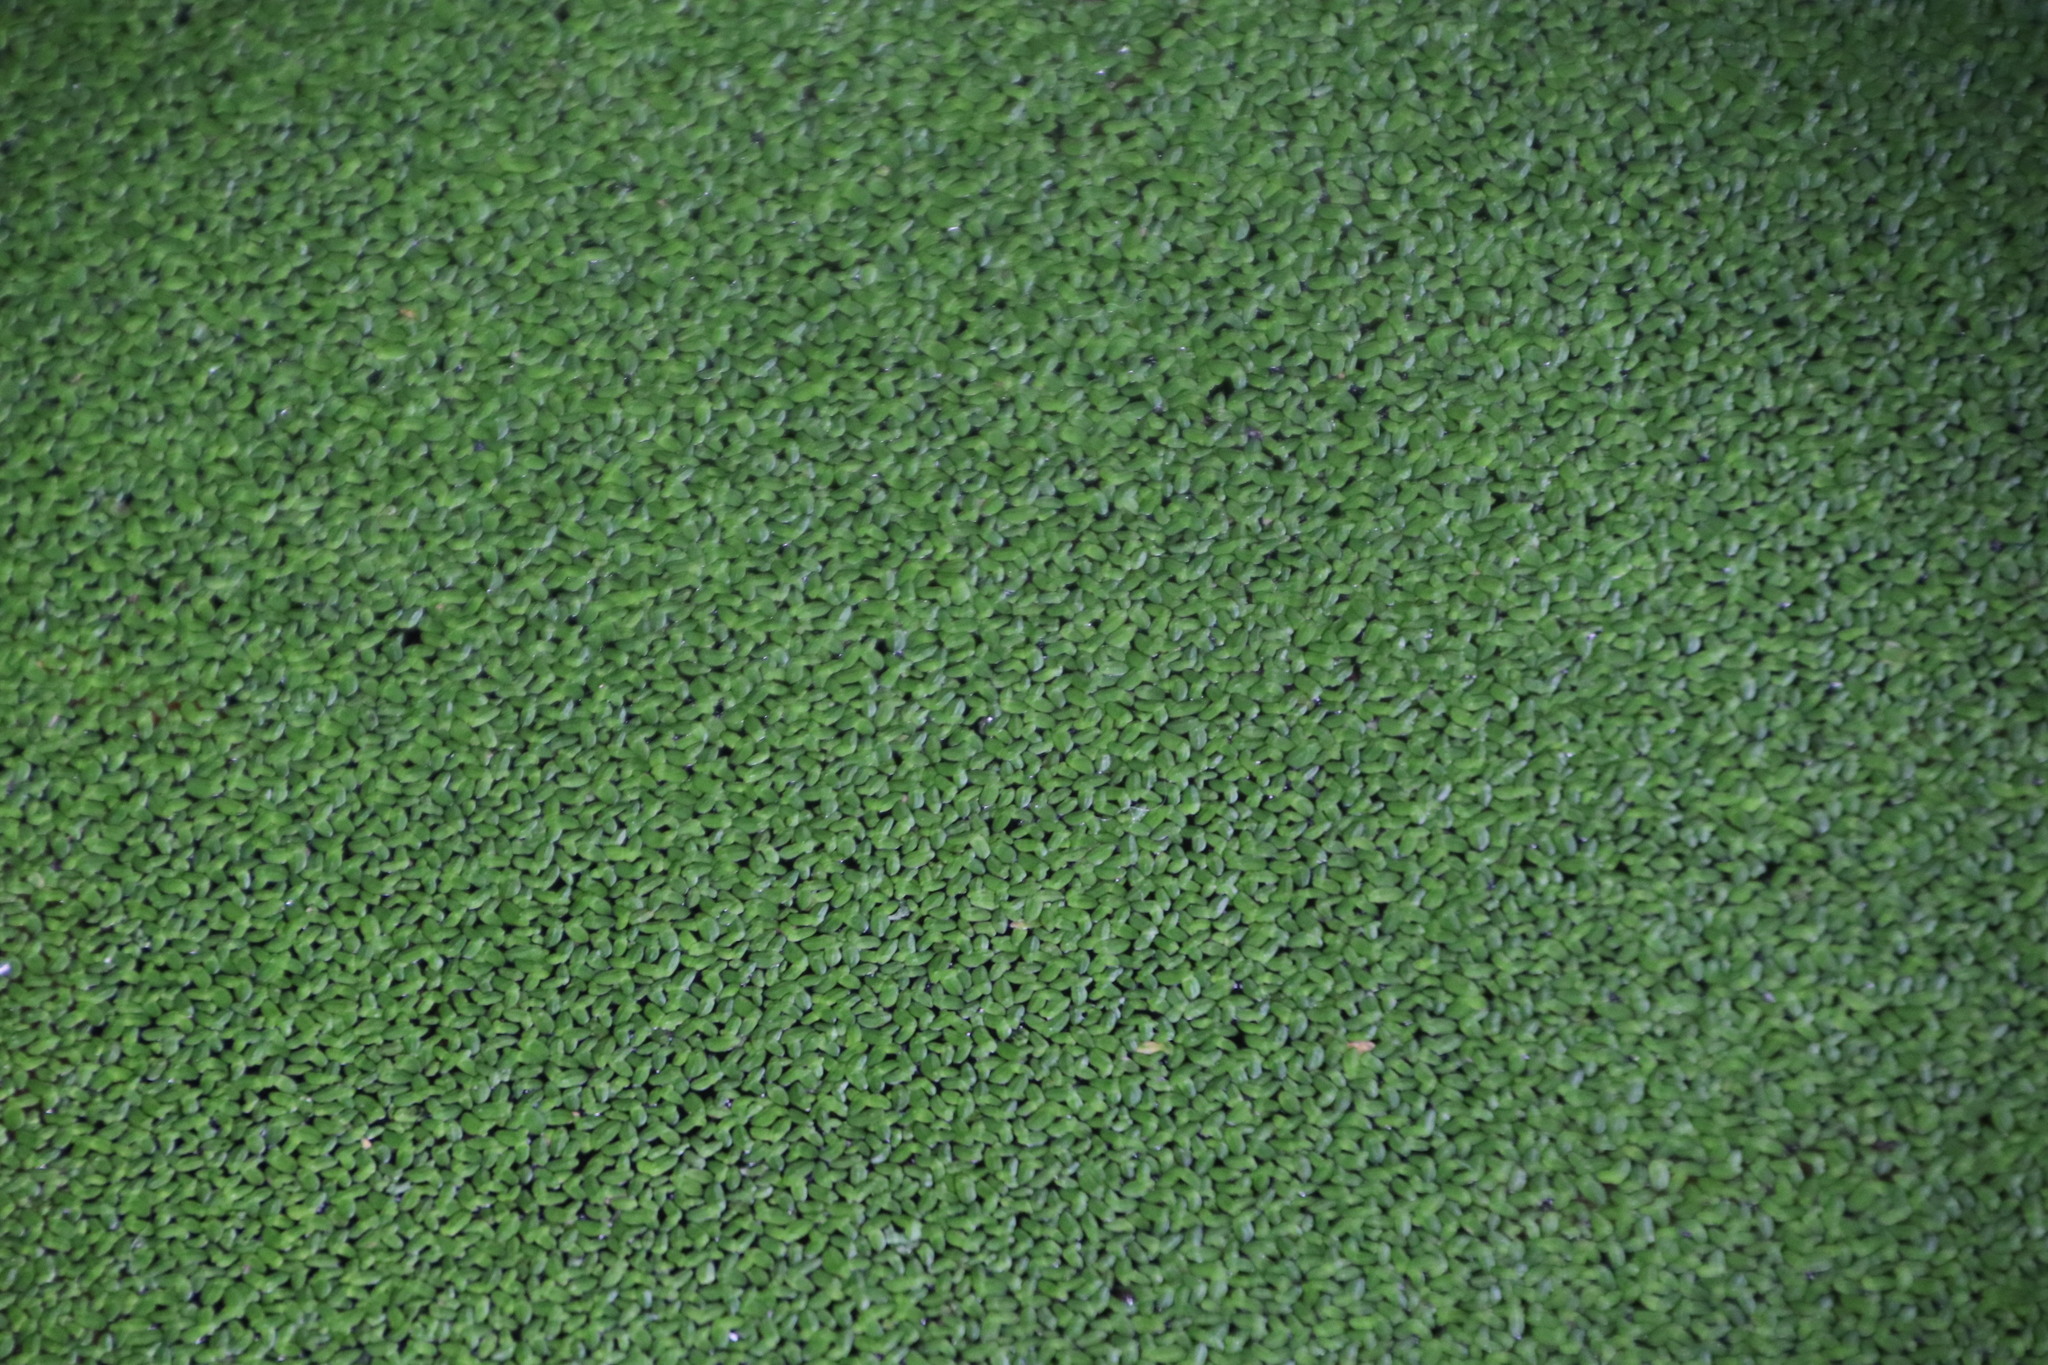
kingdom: Plantae
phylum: Tracheophyta
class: Liliopsida
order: Alismatales
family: Araceae
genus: Lemna
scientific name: Lemna minor
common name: Common duckweed
